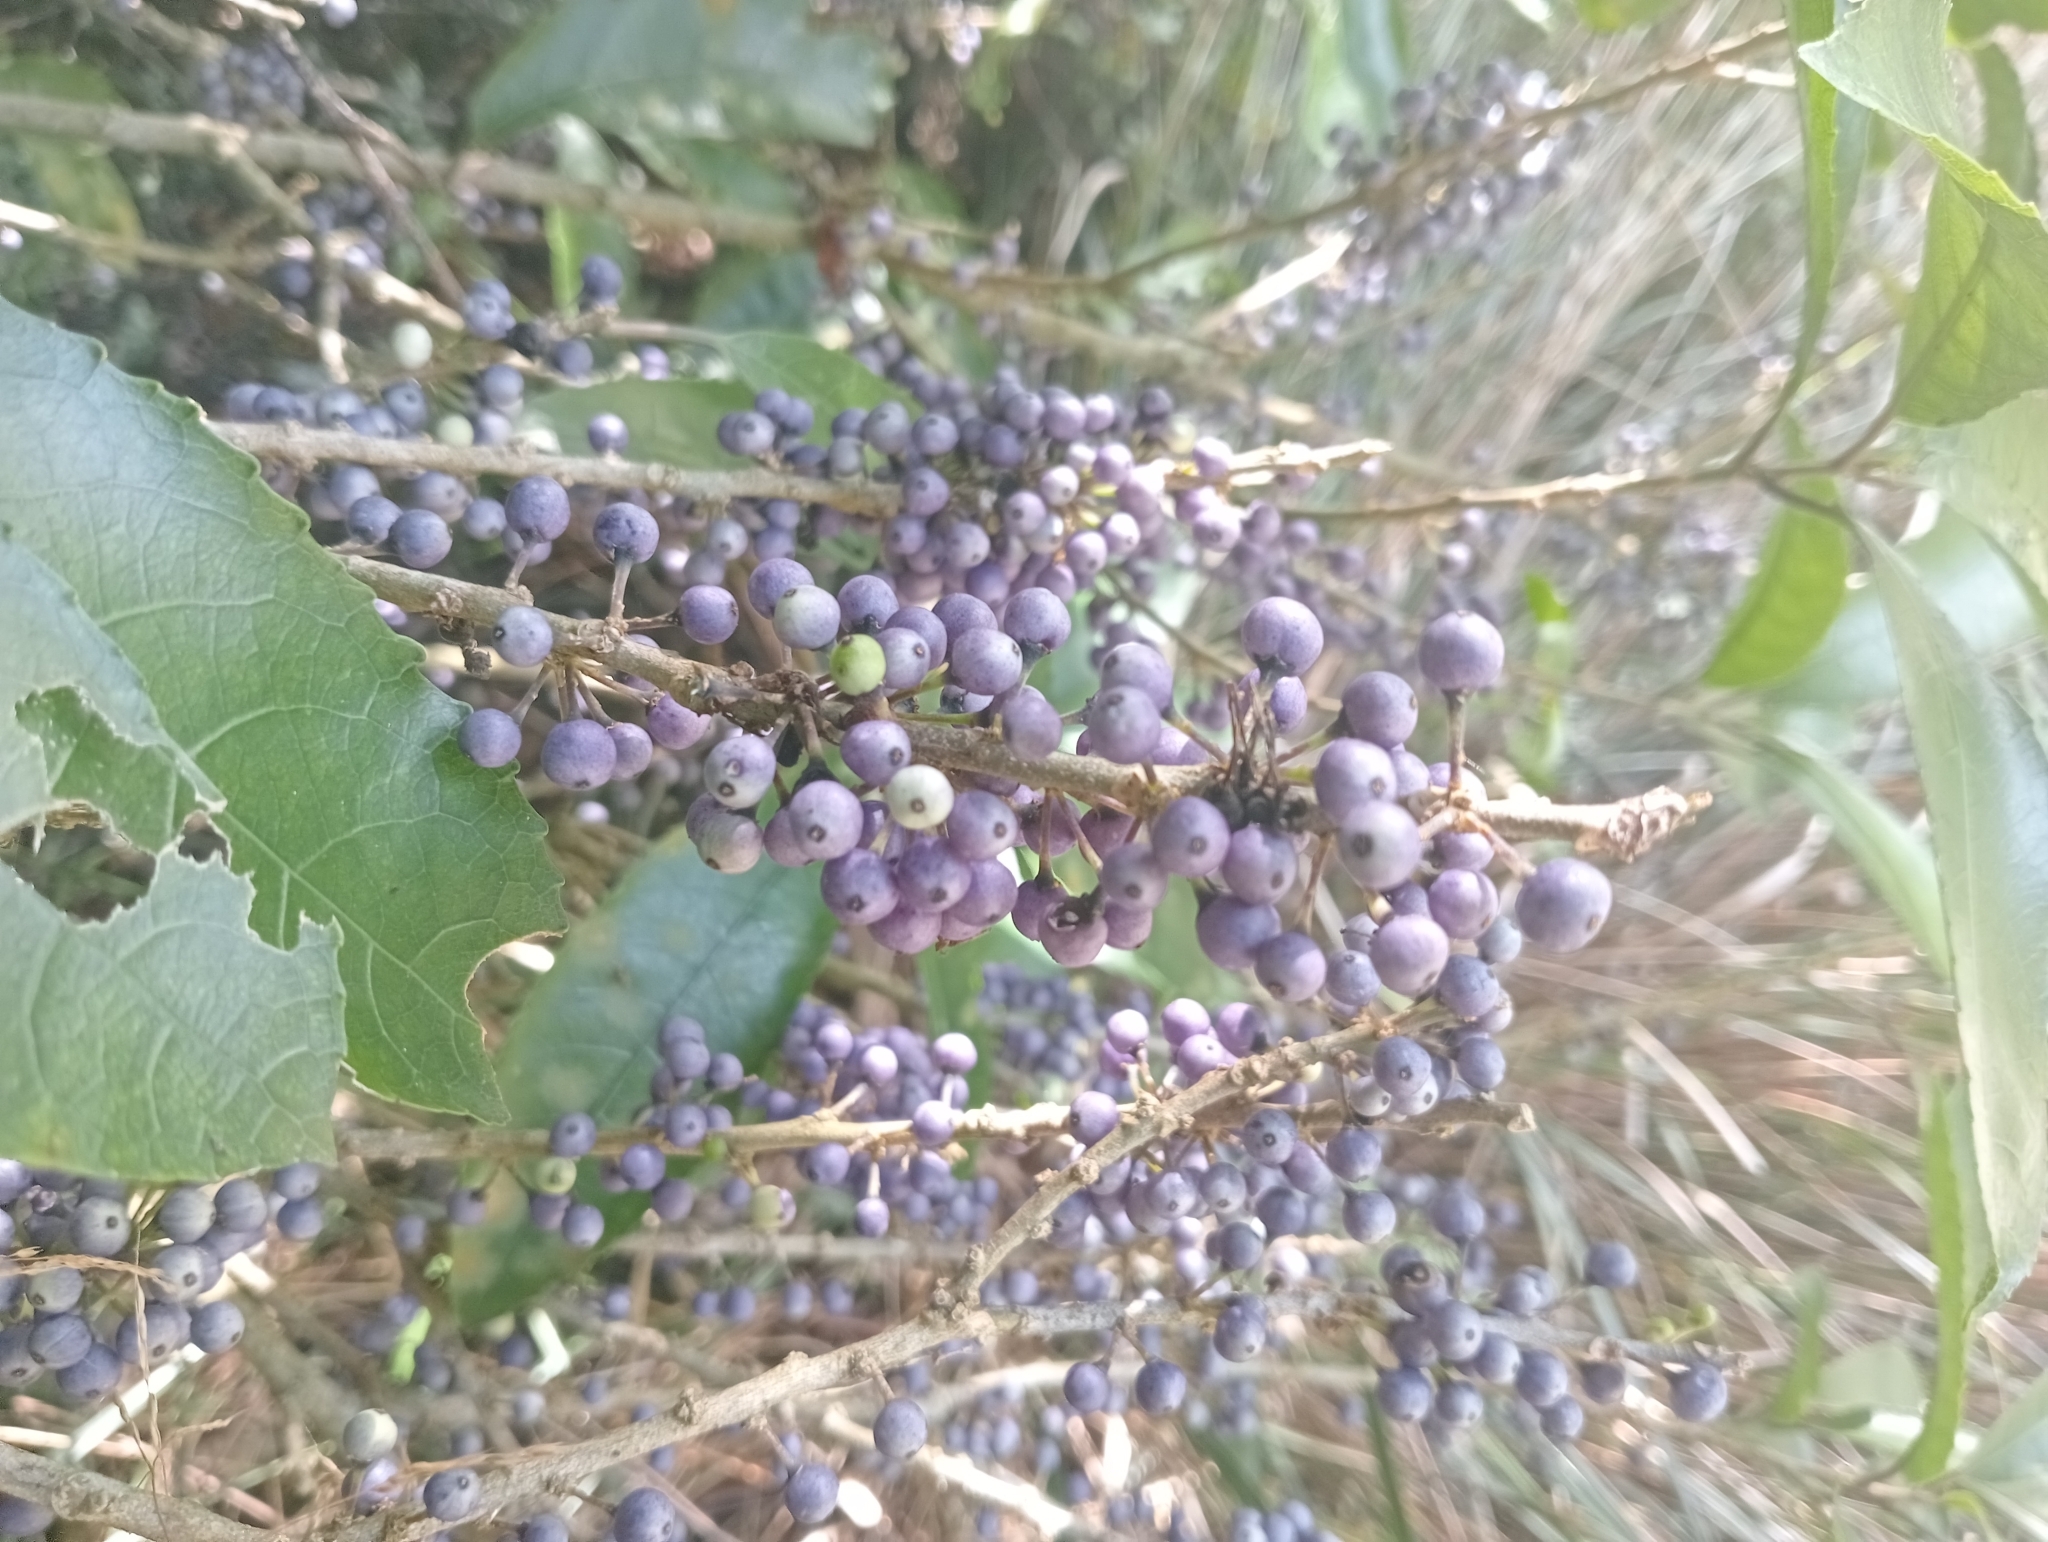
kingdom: Plantae
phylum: Tracheophyta
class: Magnoliopsida
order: Malpighiales
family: Violaceae
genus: Melicytus
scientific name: Melicytus ramiflorus
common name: Mahoe
